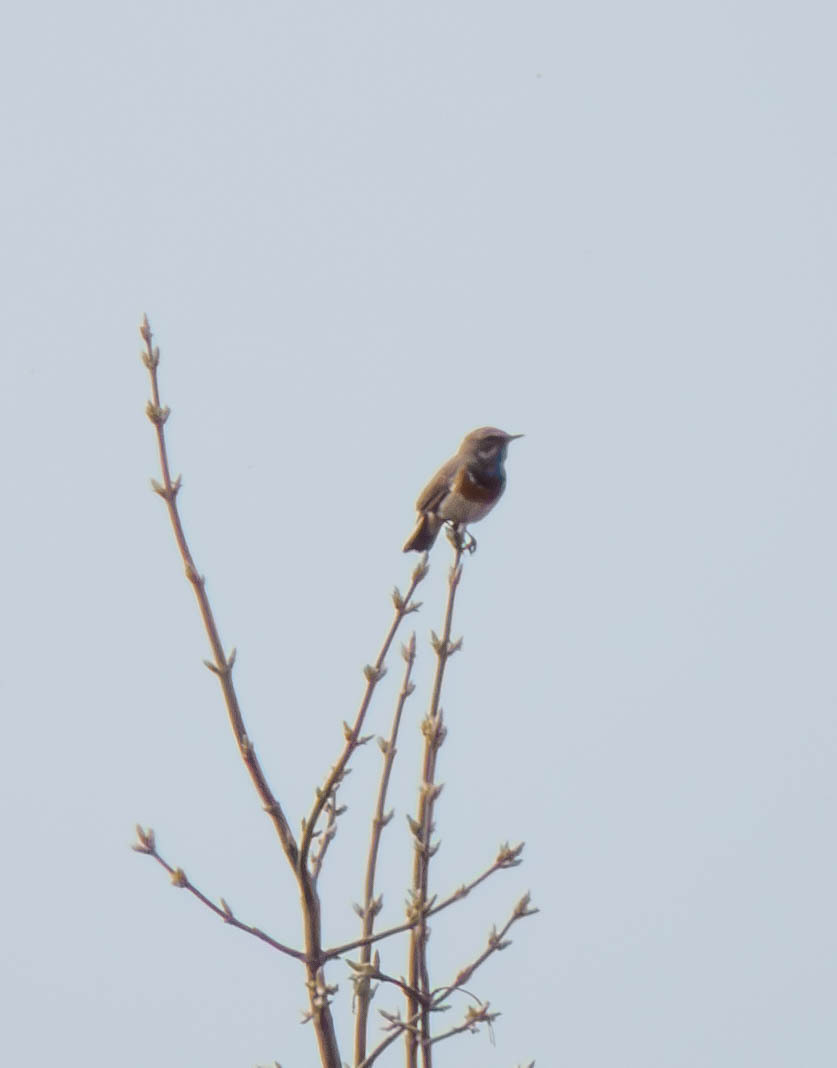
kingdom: Animalia
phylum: Chordata
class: Aves
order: Passeriformes
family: Muscicapidae
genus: Luscinia
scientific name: Luscinia svecica
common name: Bluethroat
